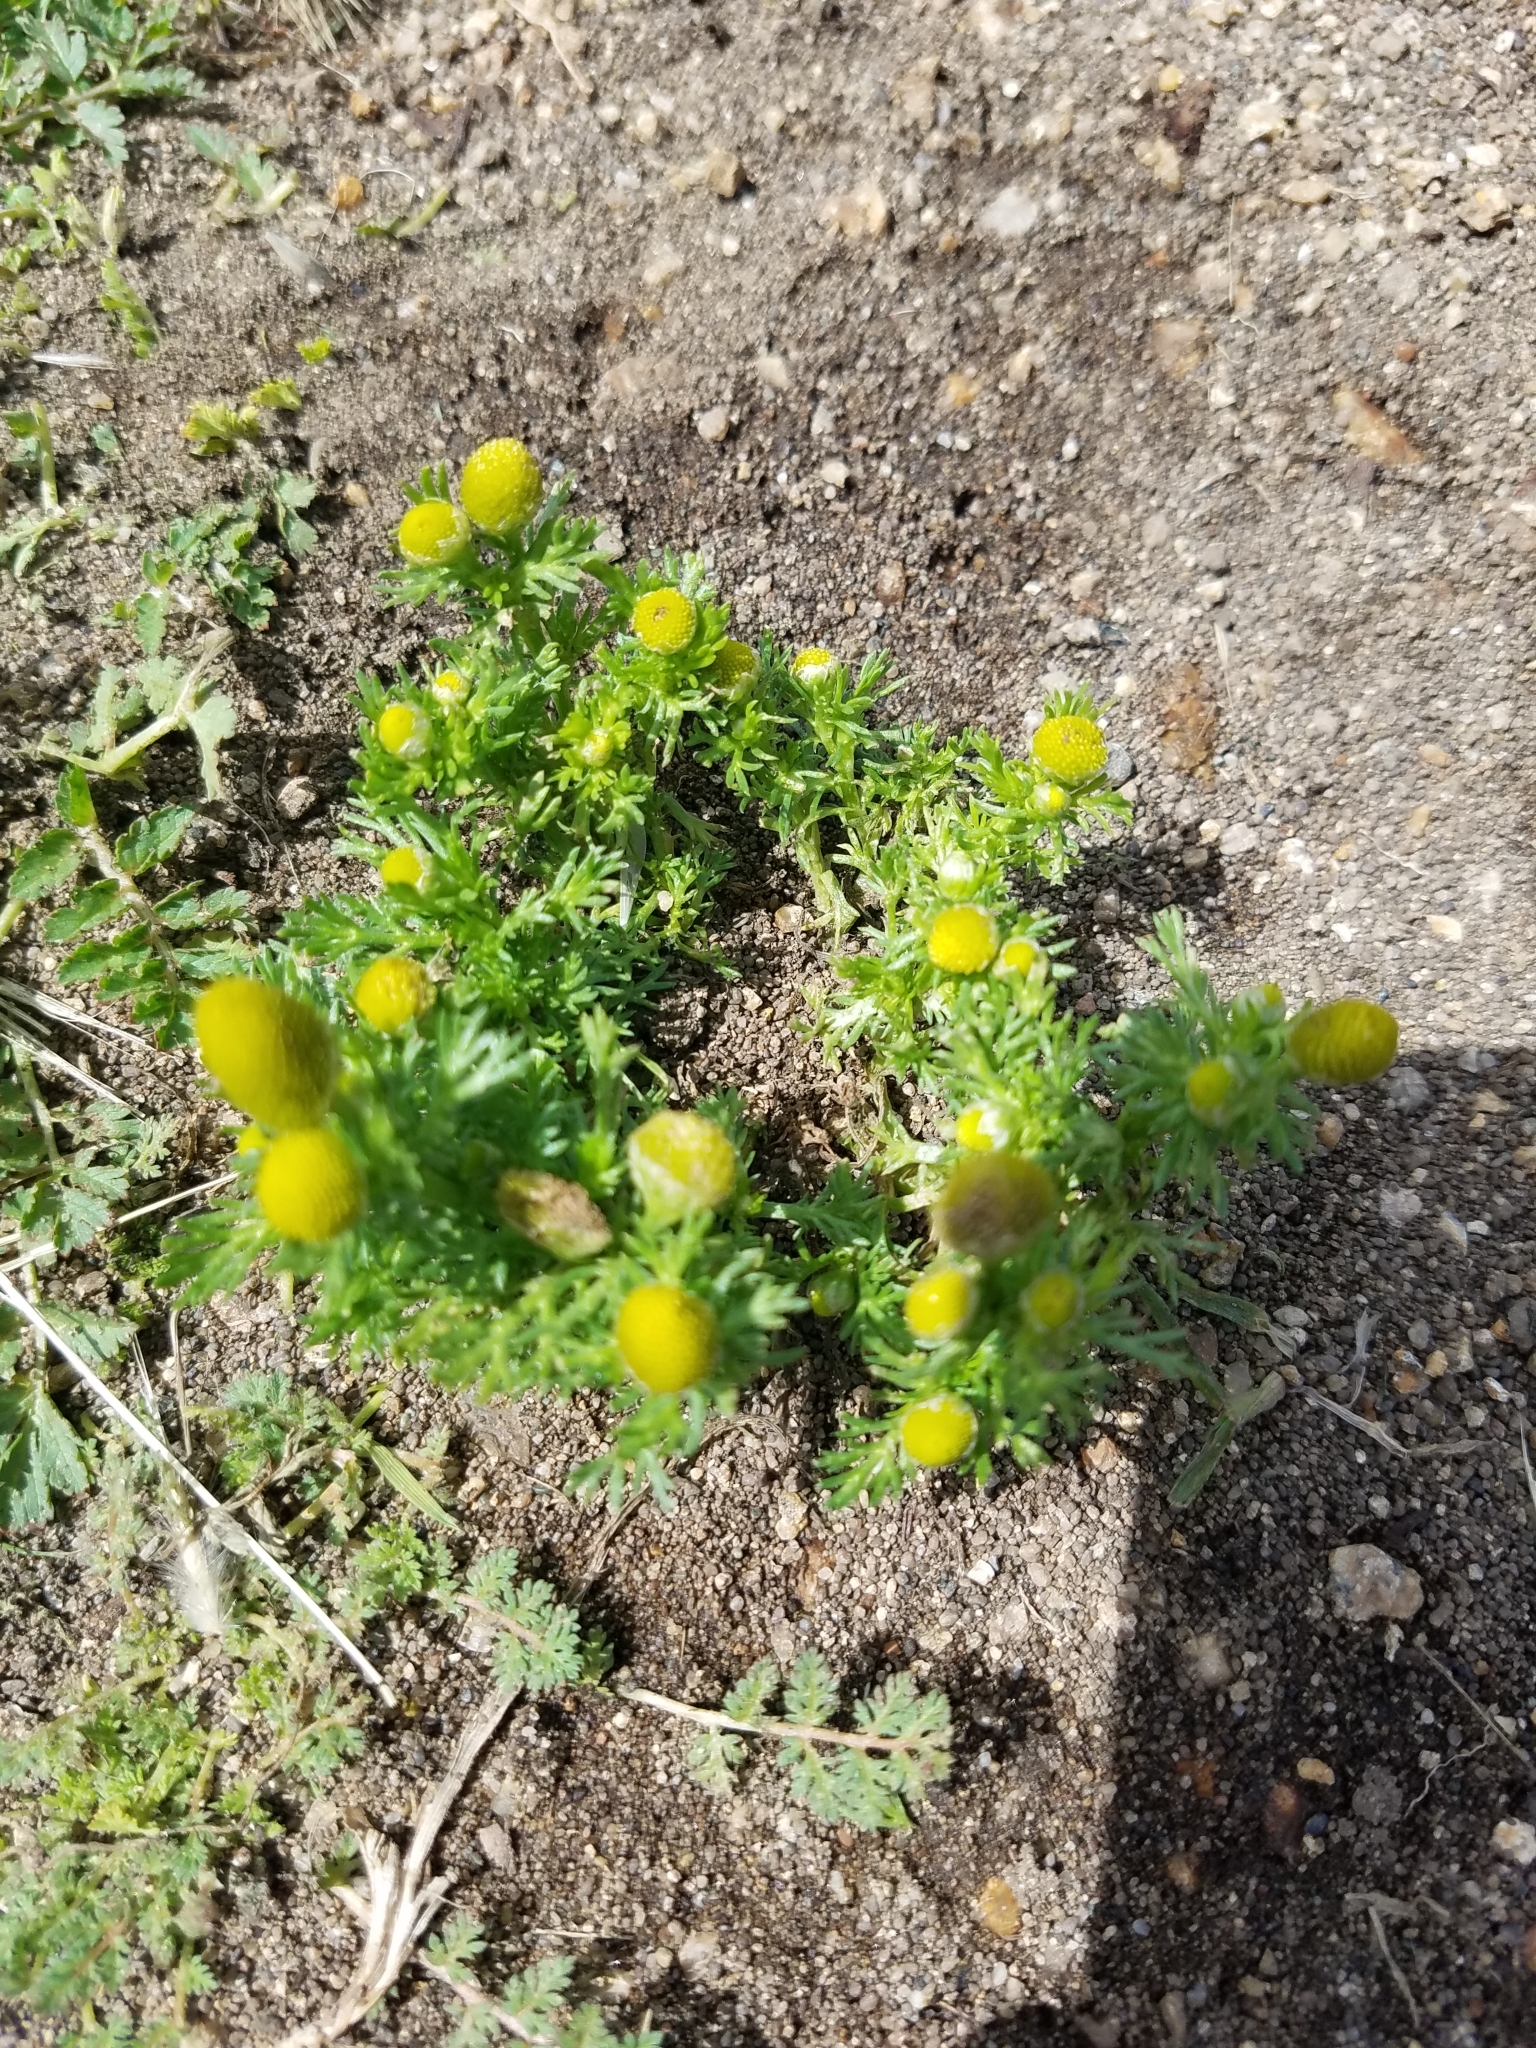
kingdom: Plantae
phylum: Tracheophyta
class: Magnoliopsida
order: Asterales
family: Asteraceae
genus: Matricaria
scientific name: Matricaria discoidea
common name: Disc mayweed
